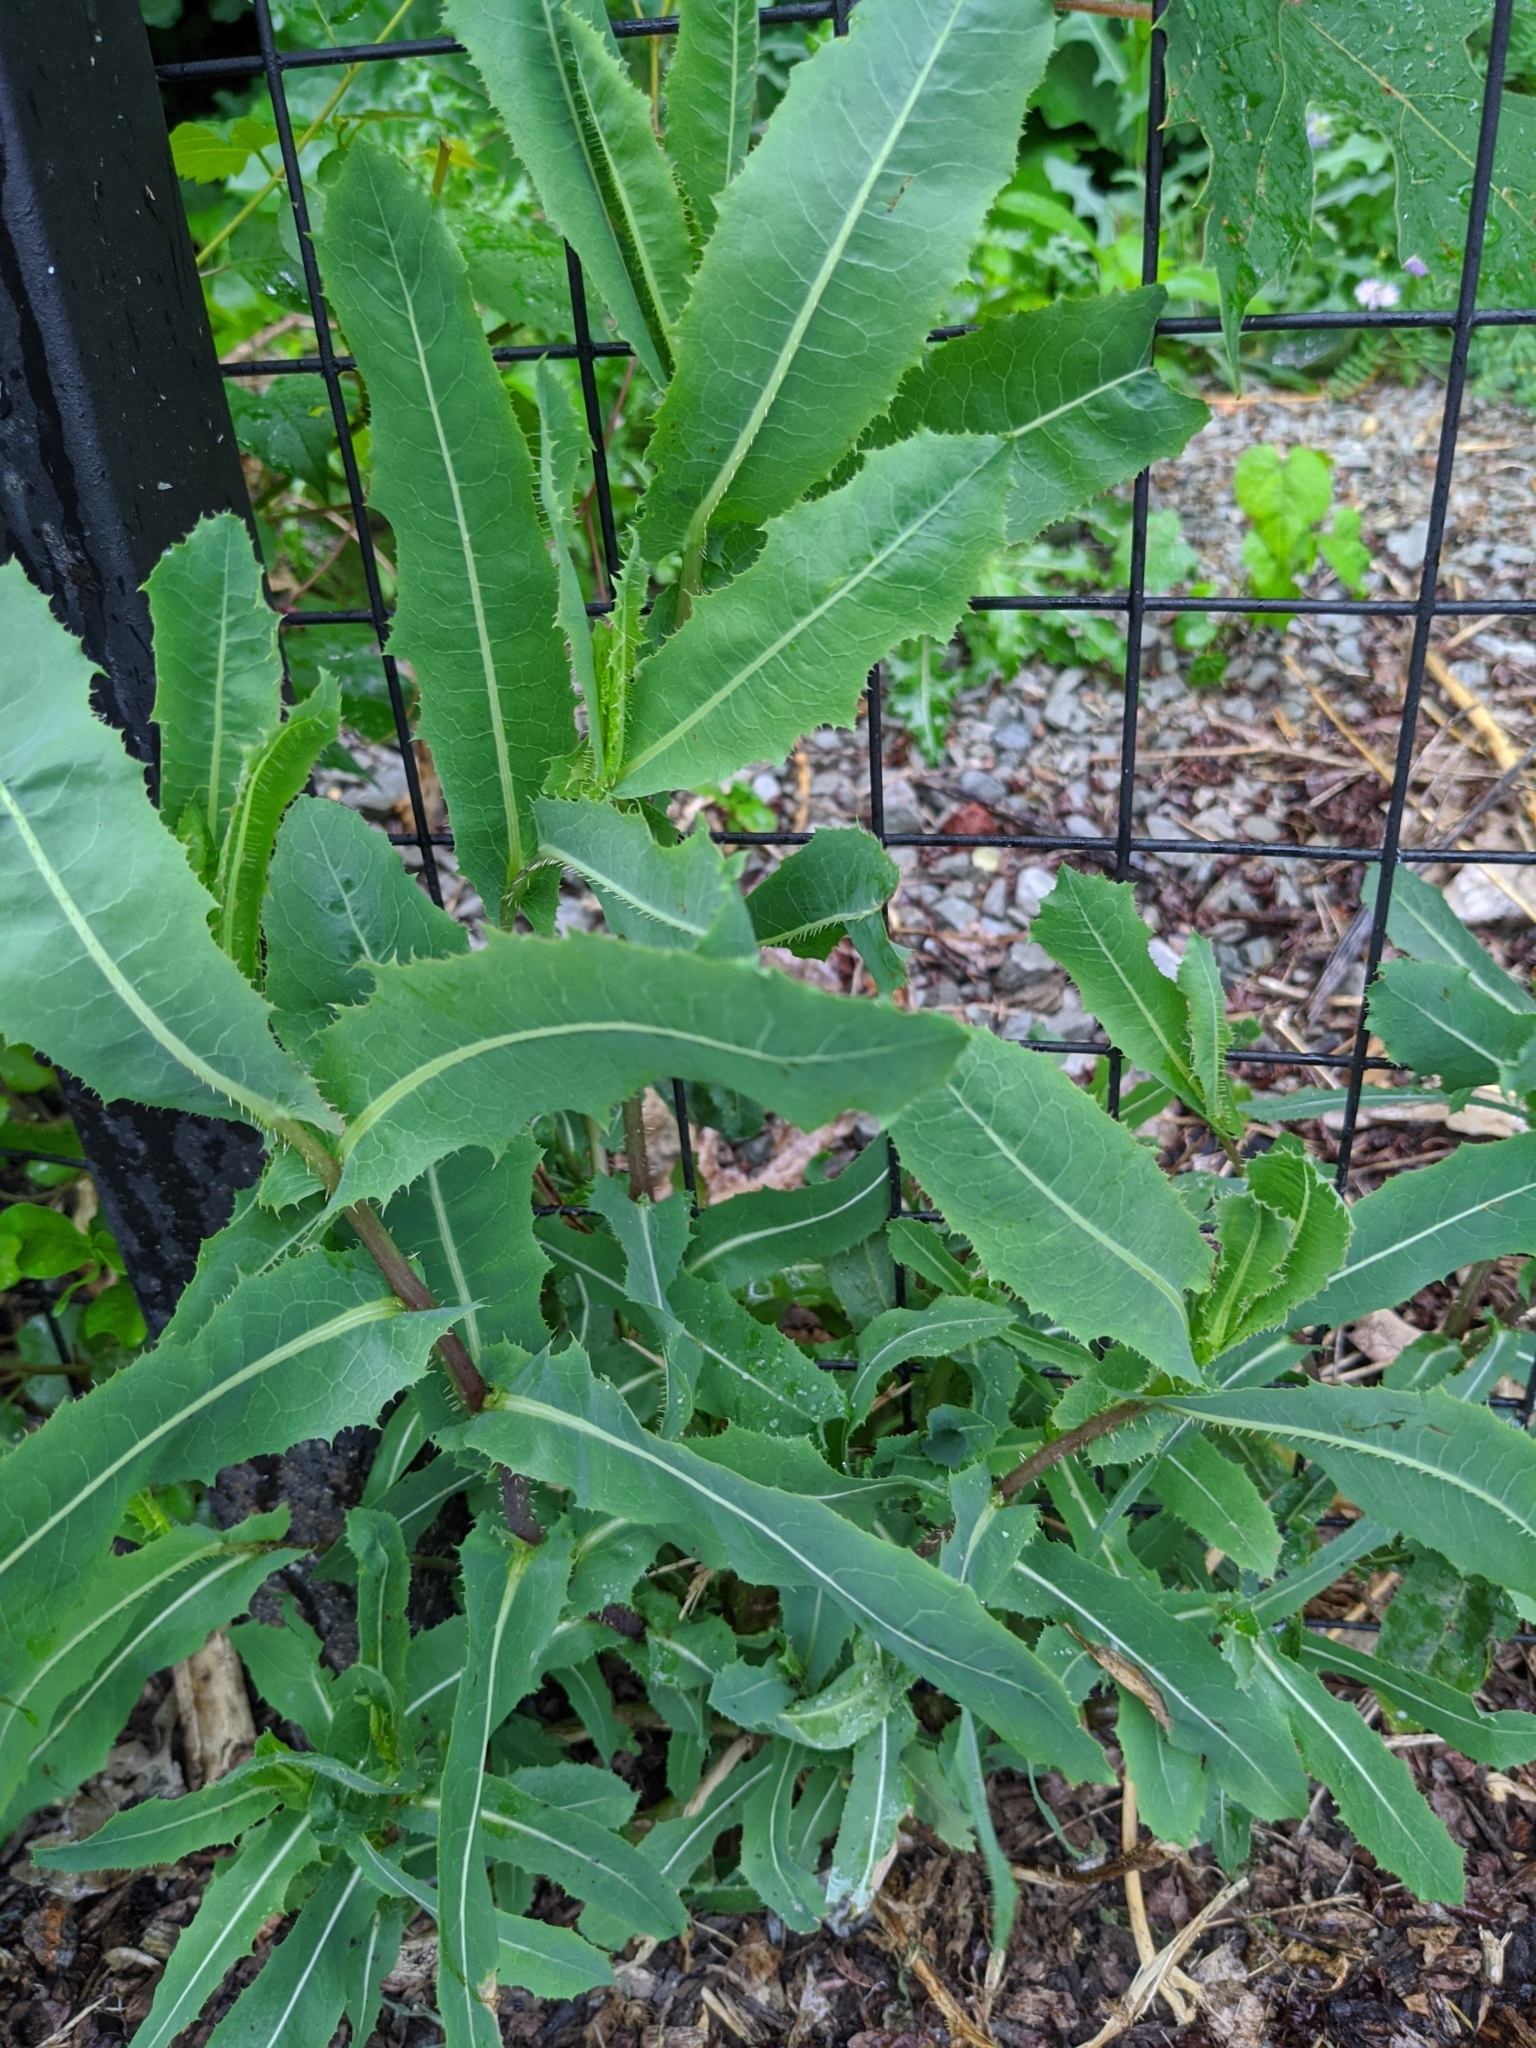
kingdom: Plantae
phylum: Tracheophyta
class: Magnoliopsida
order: Asterales
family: Asteraceae
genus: Lactuca
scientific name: Lactuca serriola
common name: Prickly lettuce
